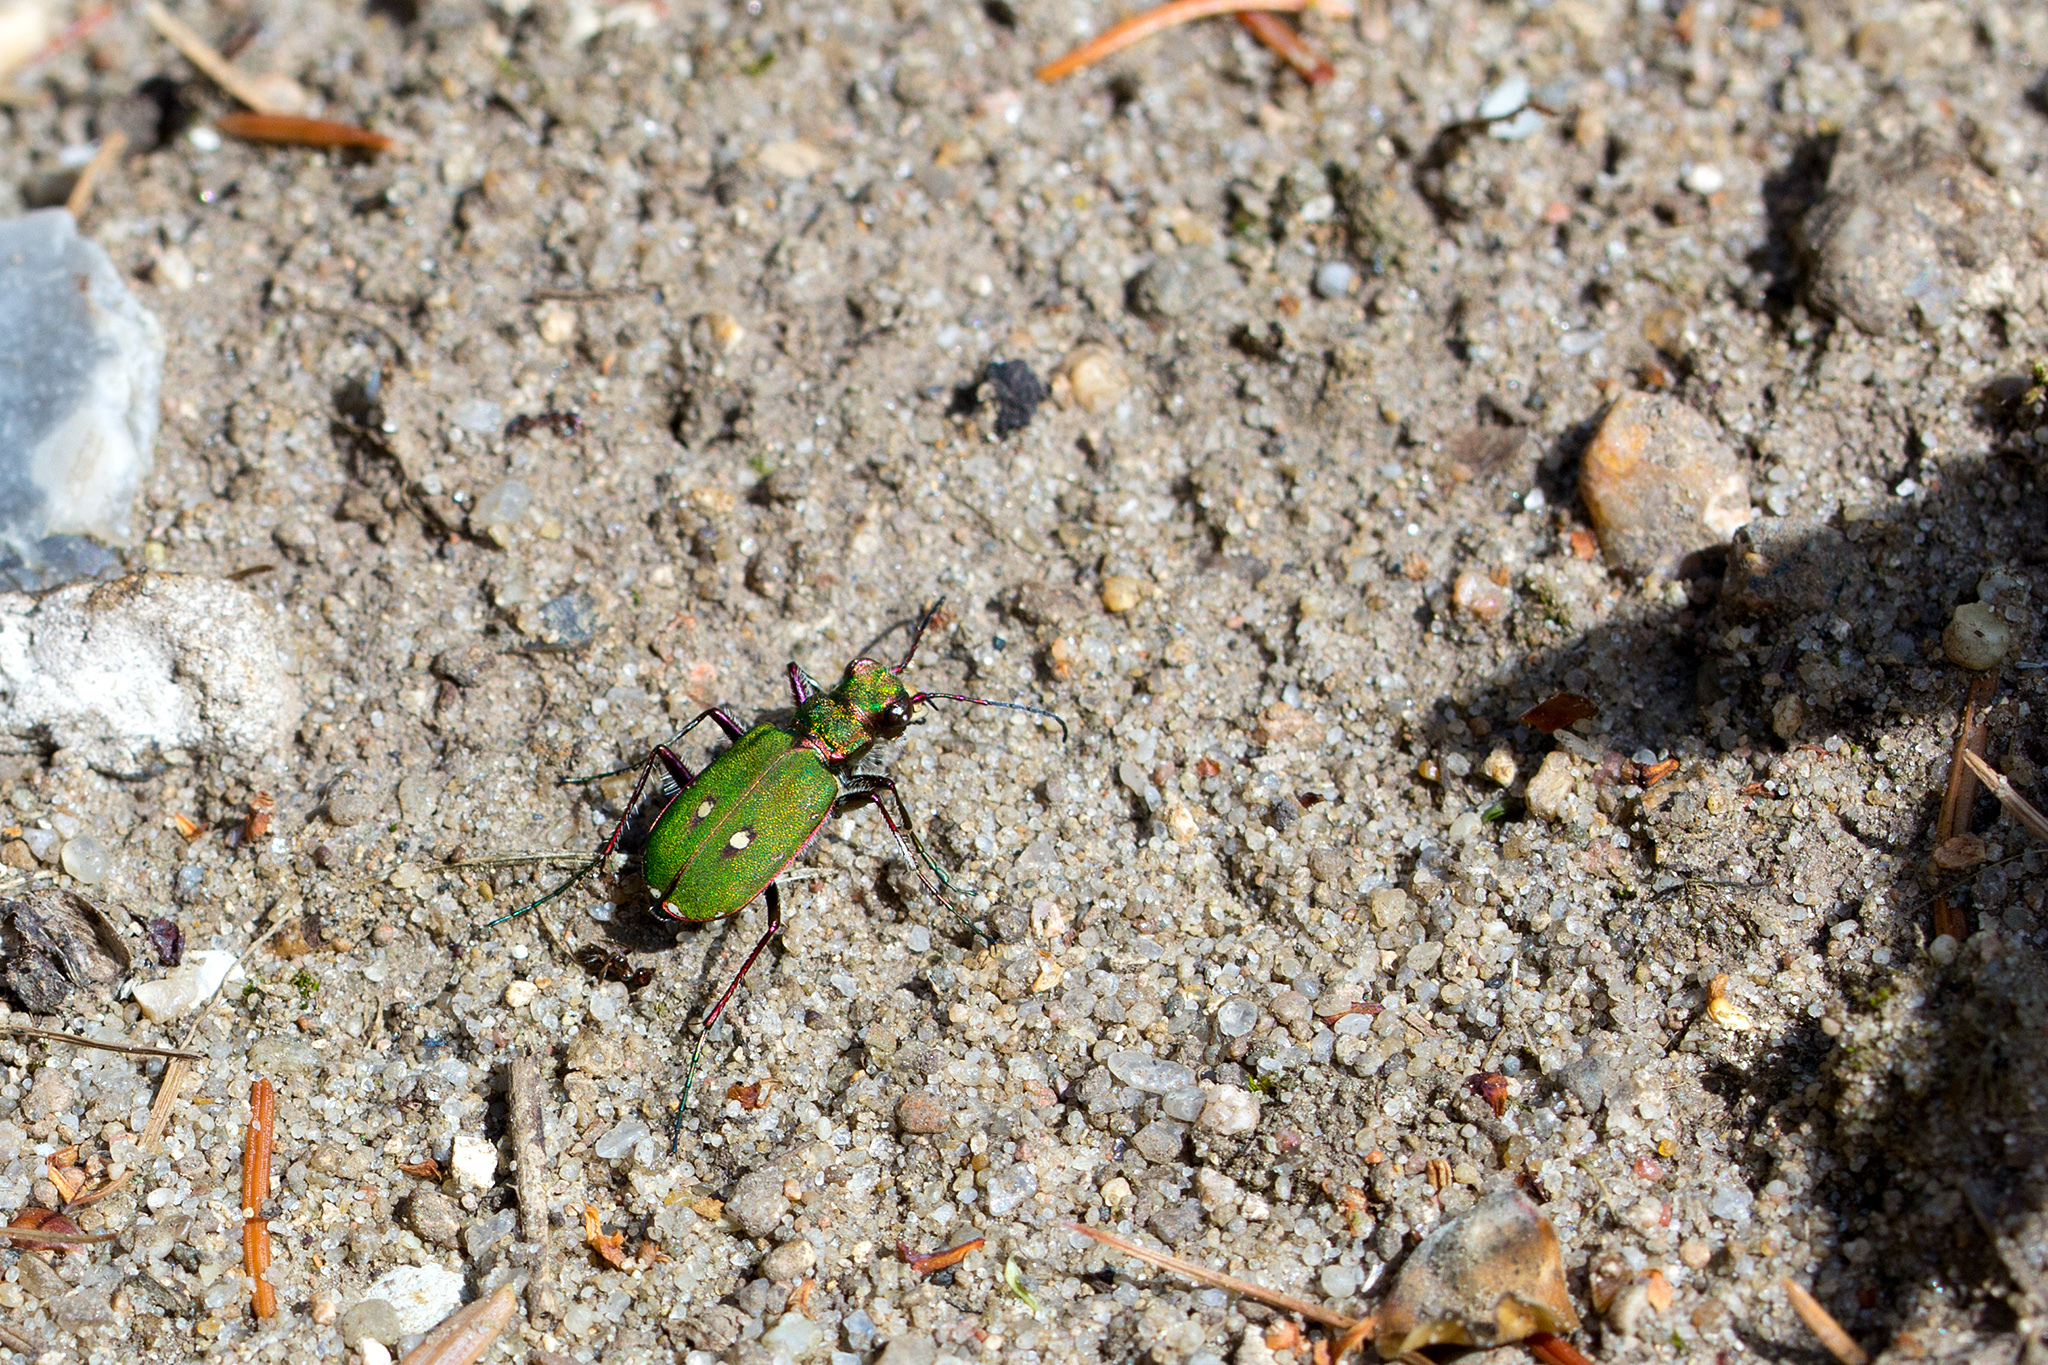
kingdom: Animalia
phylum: Arthropoda
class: Insecta
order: Coleoptera
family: Carabidae
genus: Cicindela
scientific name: Cicindela campestris
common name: Common tiger beetle
